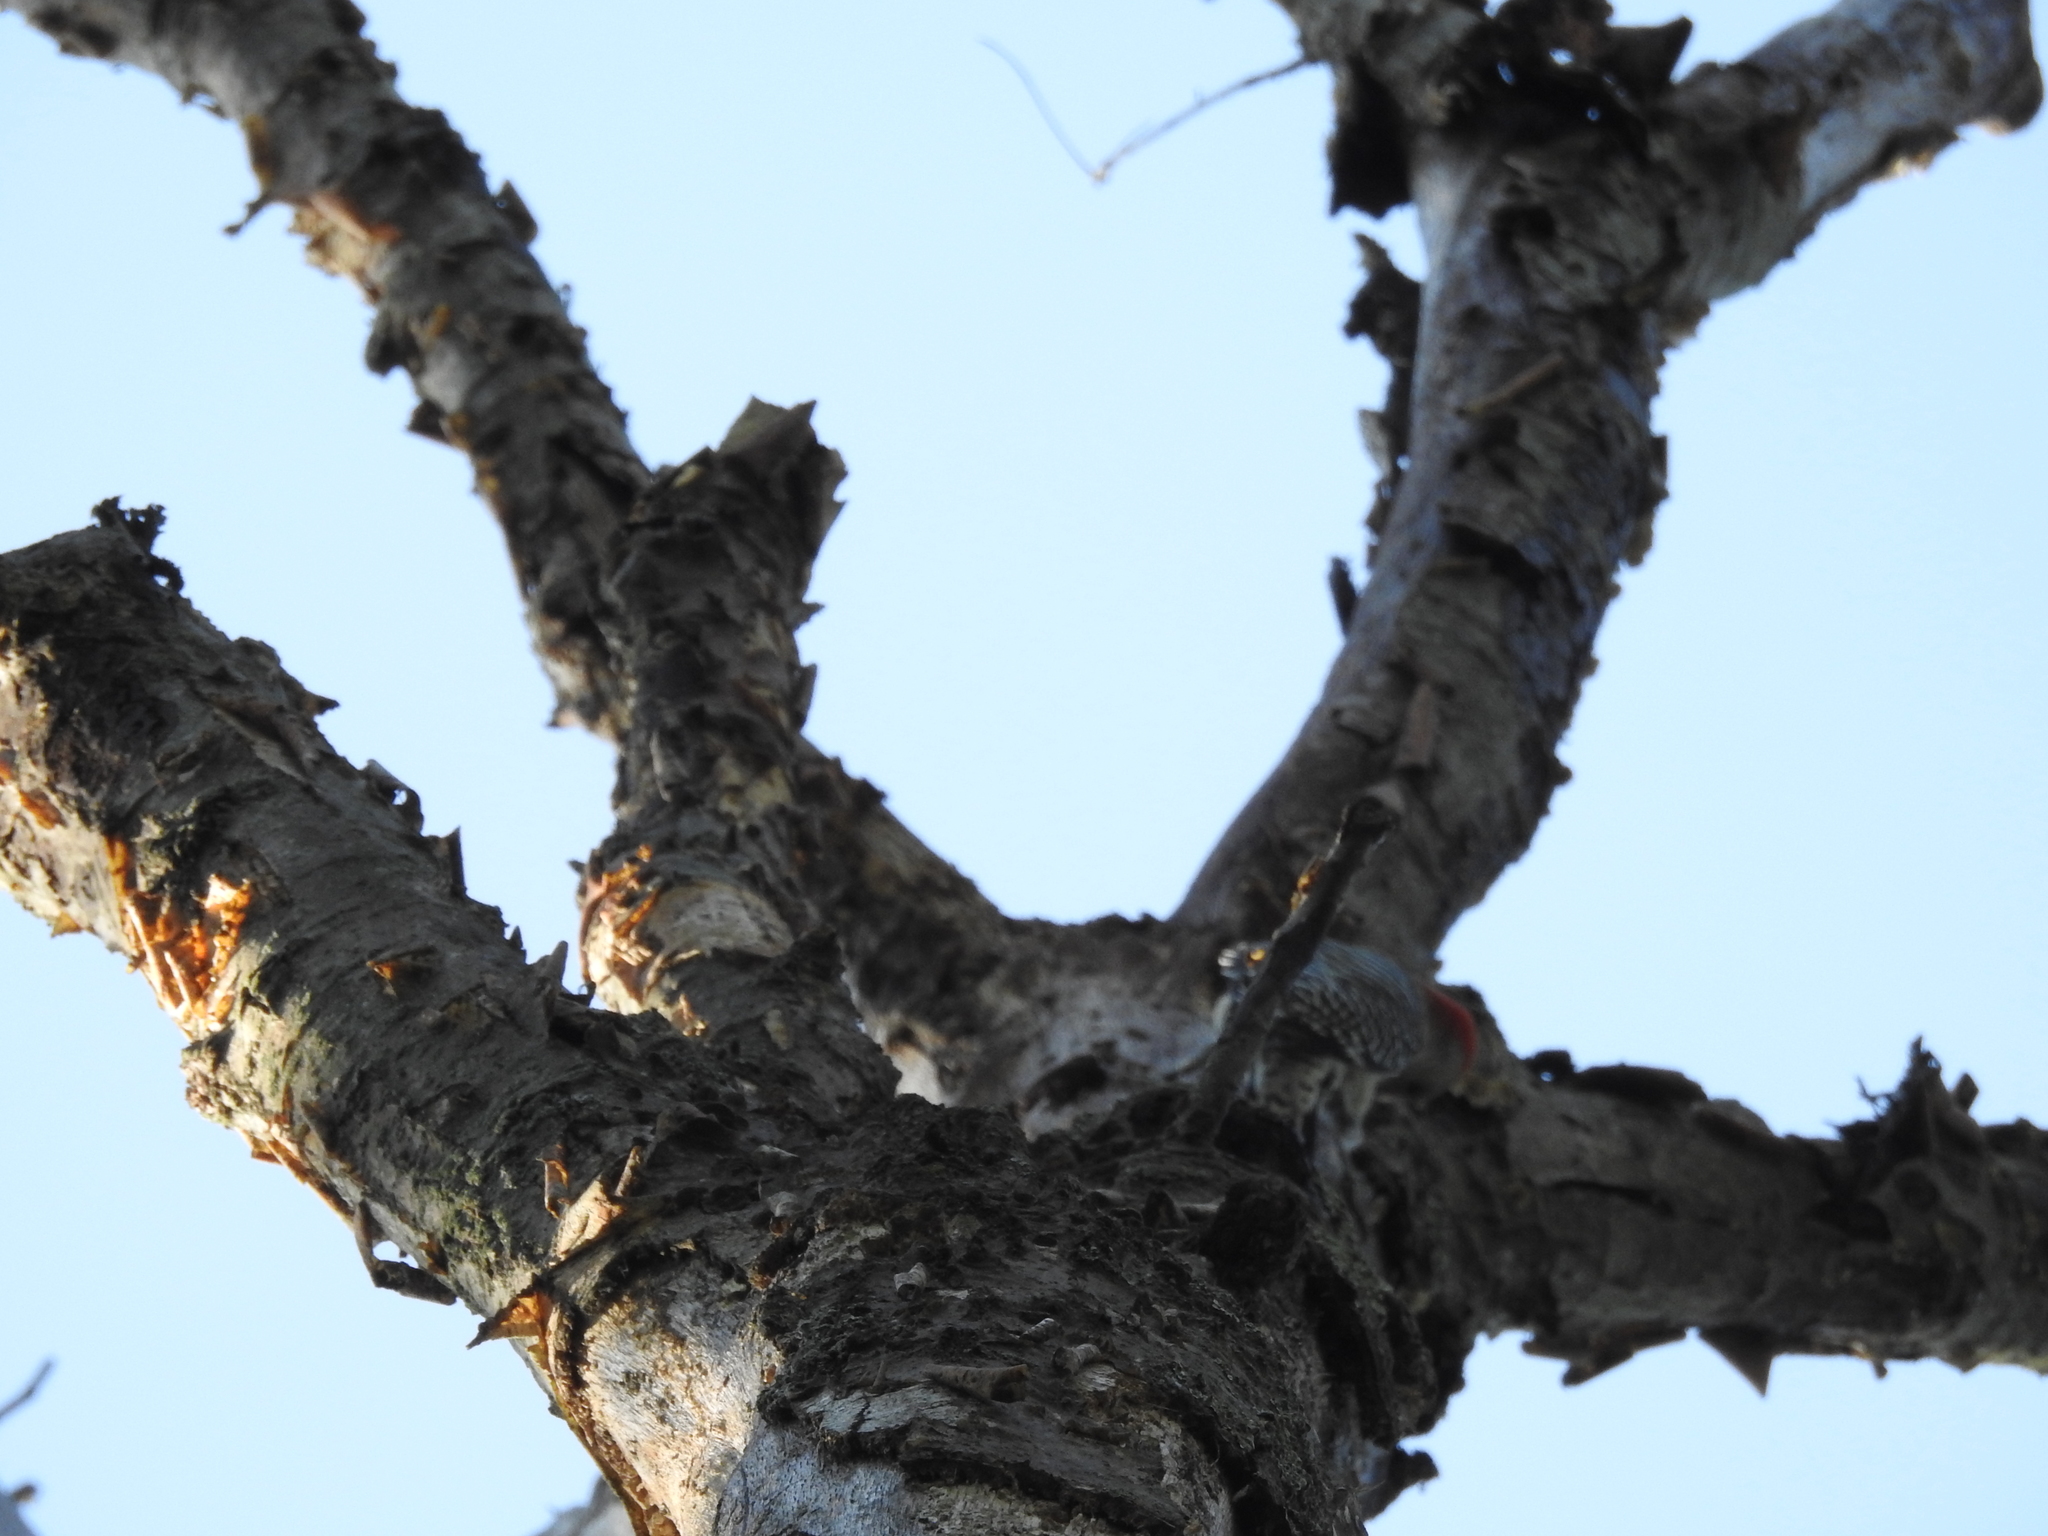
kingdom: Animalia
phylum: Chordata
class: Aves
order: Piciformes
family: Picidae
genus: Melanerpes
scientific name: Melanerpes carolinus
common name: Red-bellied woodpecker
